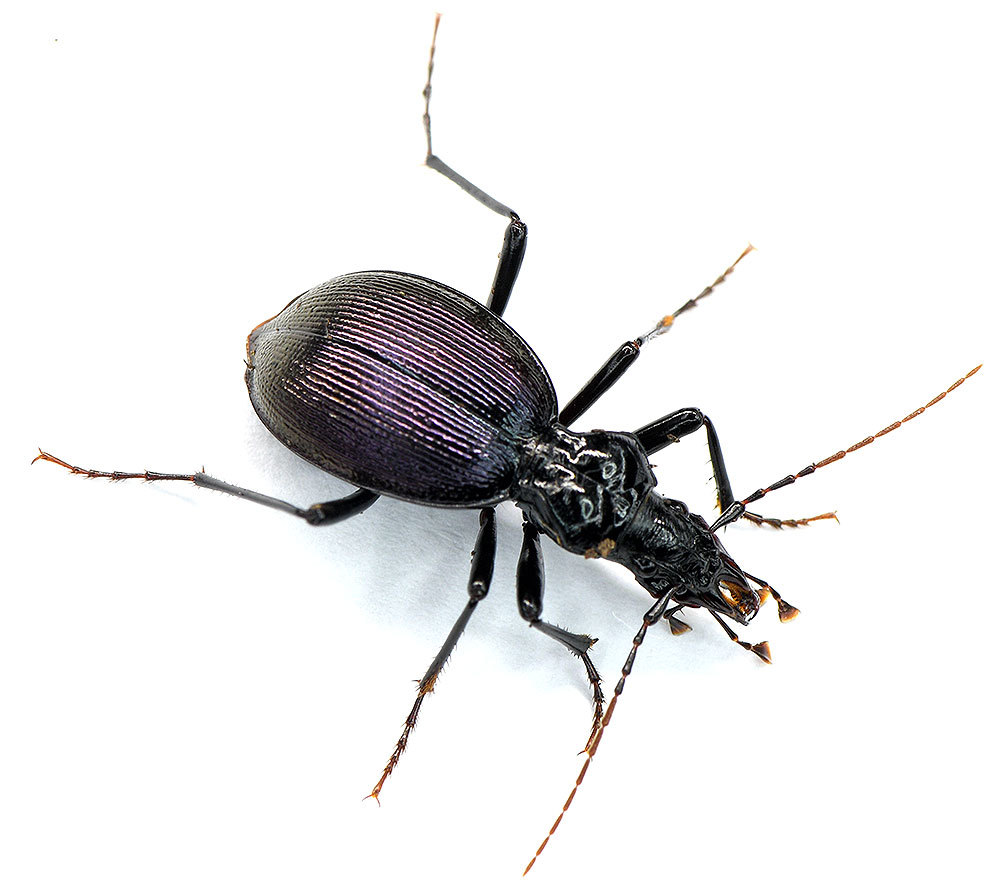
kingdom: Animalia
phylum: Arthropoda
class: Insecta
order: Coleoptera
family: Carabidae
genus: Scaphinotus
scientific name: Scaphinotus angulatus
